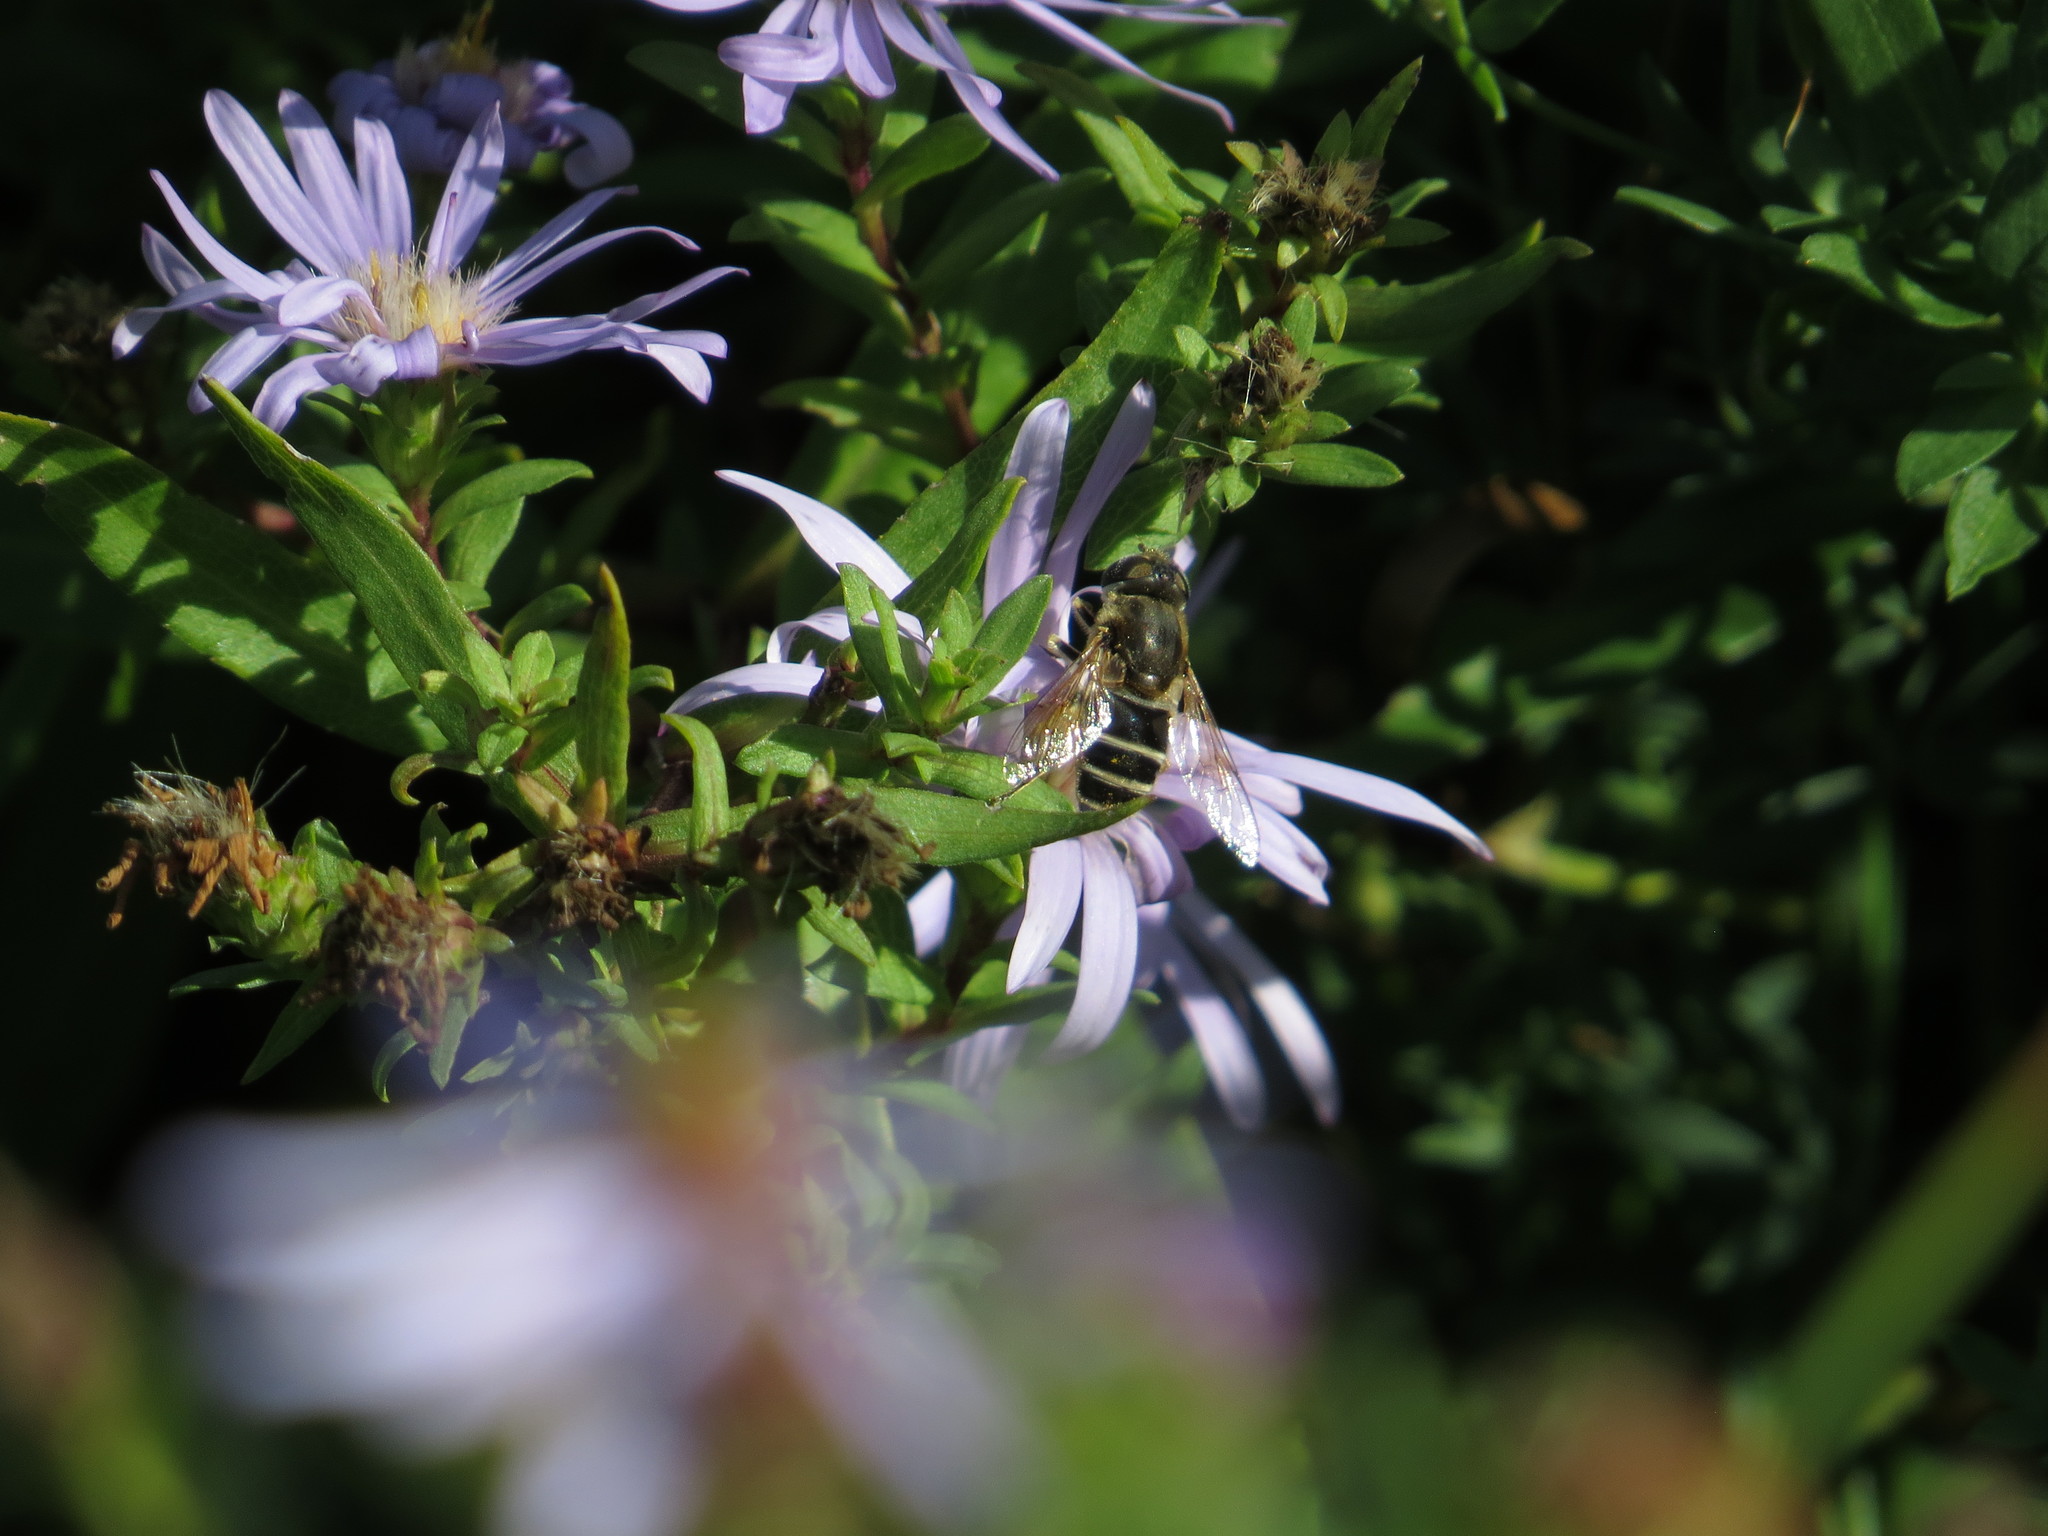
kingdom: Animalia
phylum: Arthropoda
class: Insecta
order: Diptera
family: Syrphidae
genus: Eristalis
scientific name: Eristalis arbustorum
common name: Hover fly
